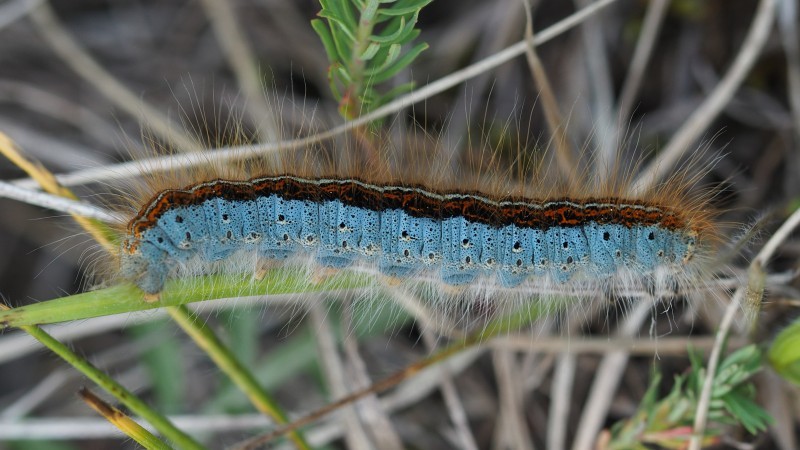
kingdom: Animalia
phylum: Arthropoda
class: Insecta
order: Lepidoptera
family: Lasiocampidae
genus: Malacosoma
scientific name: Malacosoma castrense
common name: Ground lackey
